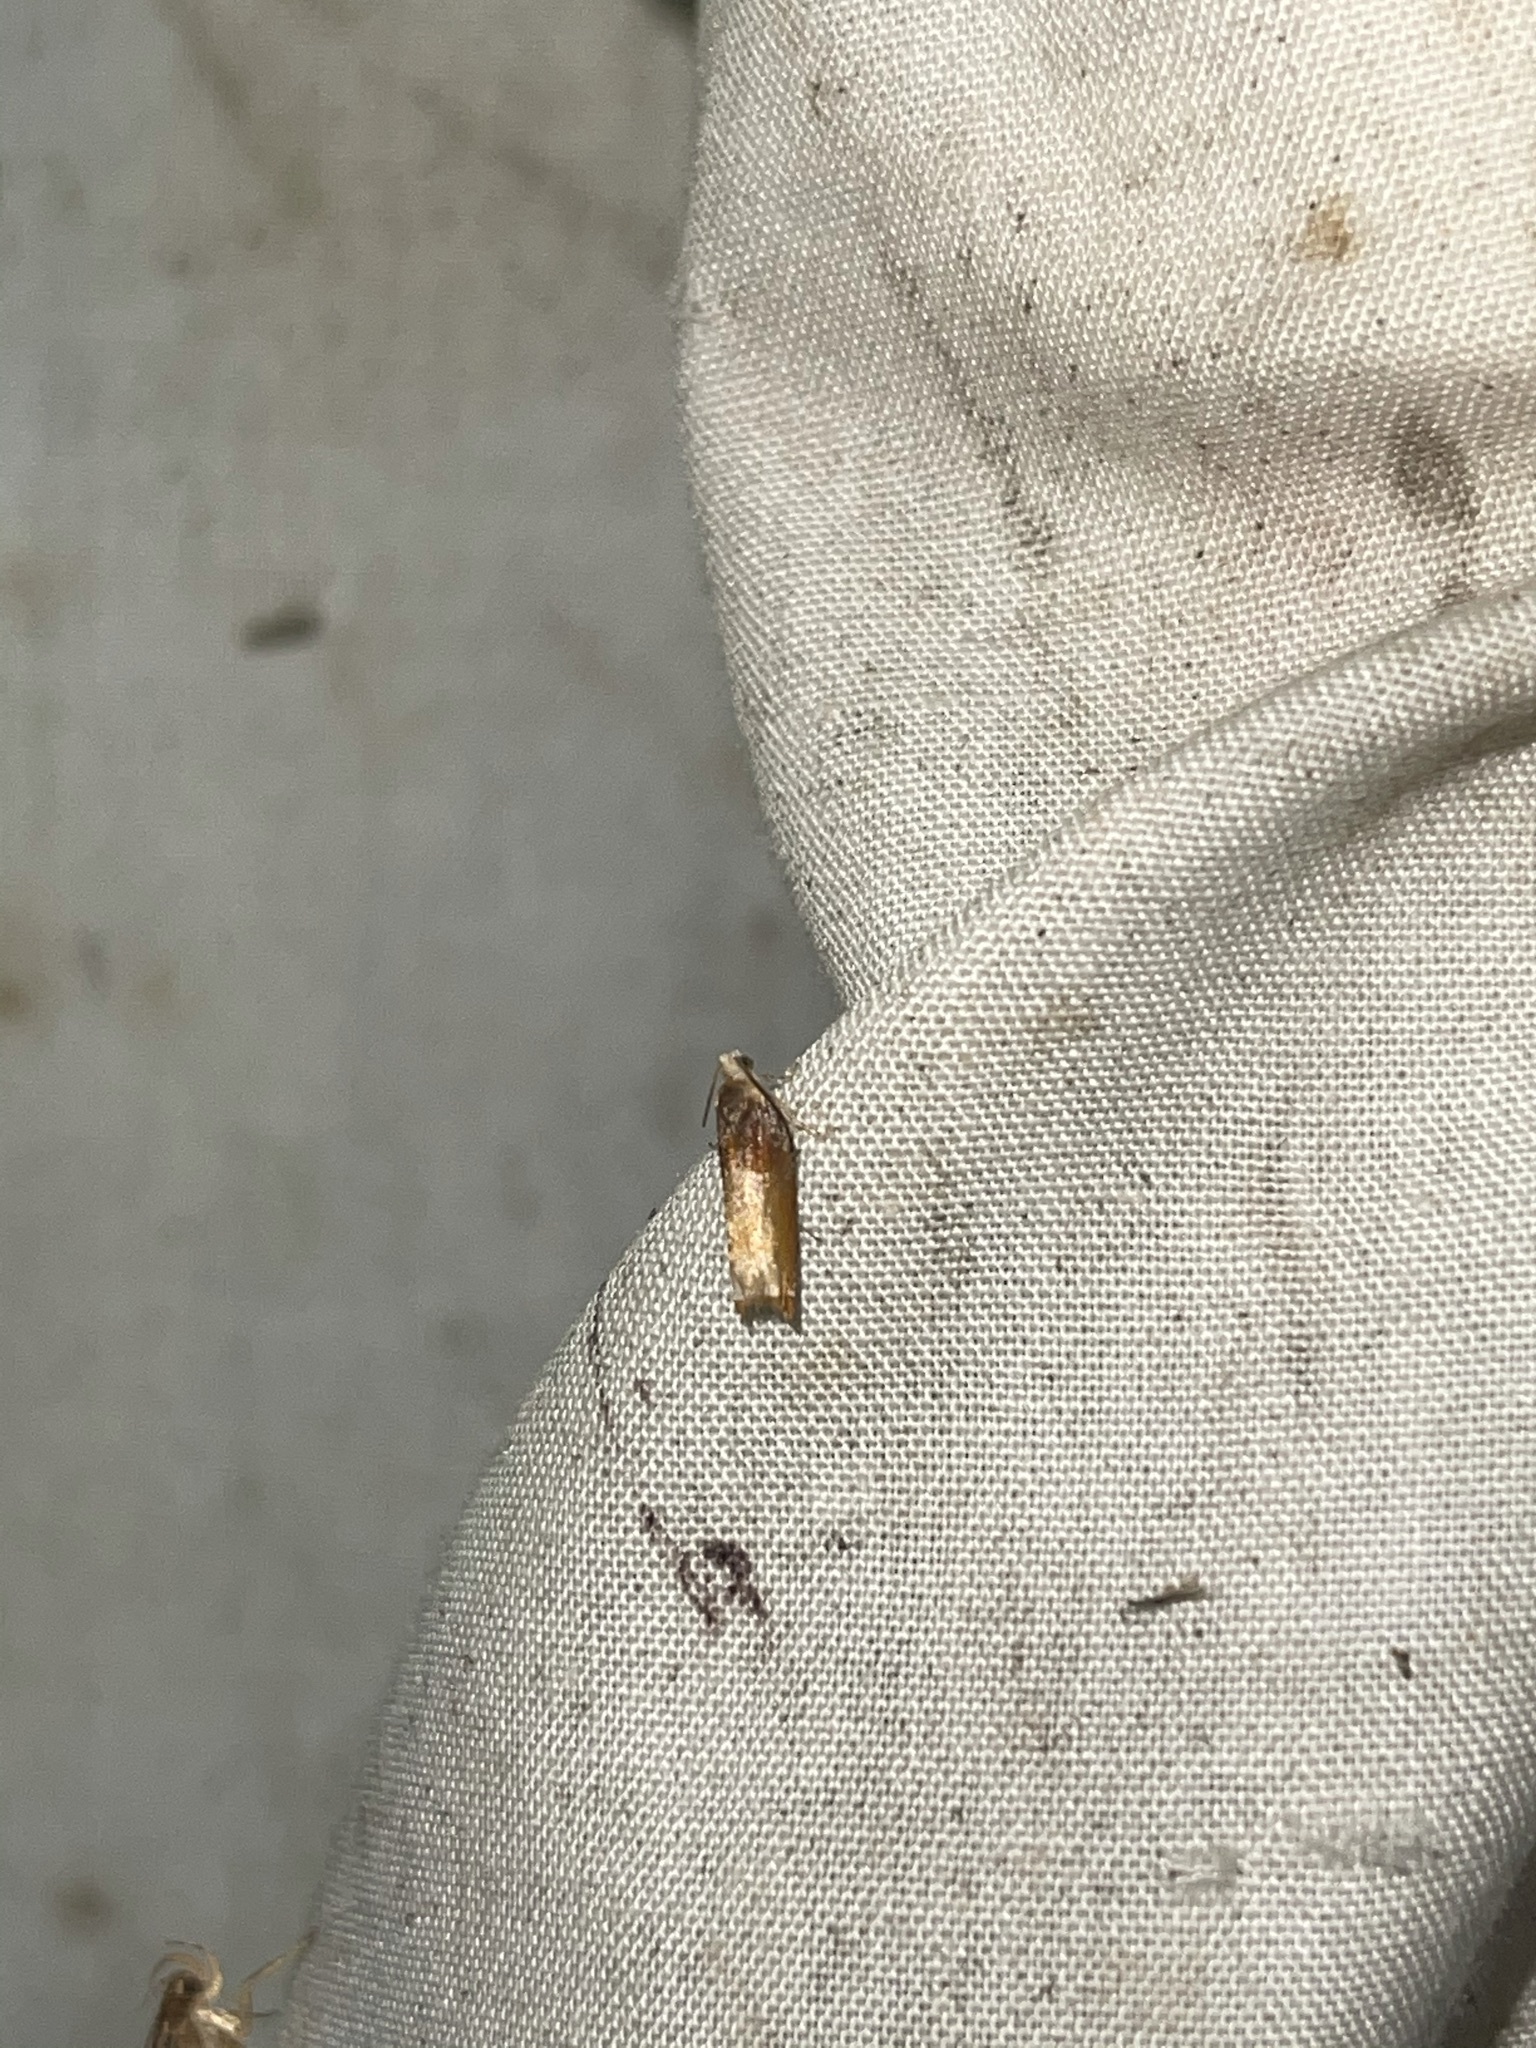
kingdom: Animalia
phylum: Arthropoda
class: Insecta
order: Lepidoptera
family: Tortricidae
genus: Ancylis
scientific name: Ancylis divisana
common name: Two-toned ancylis moth
